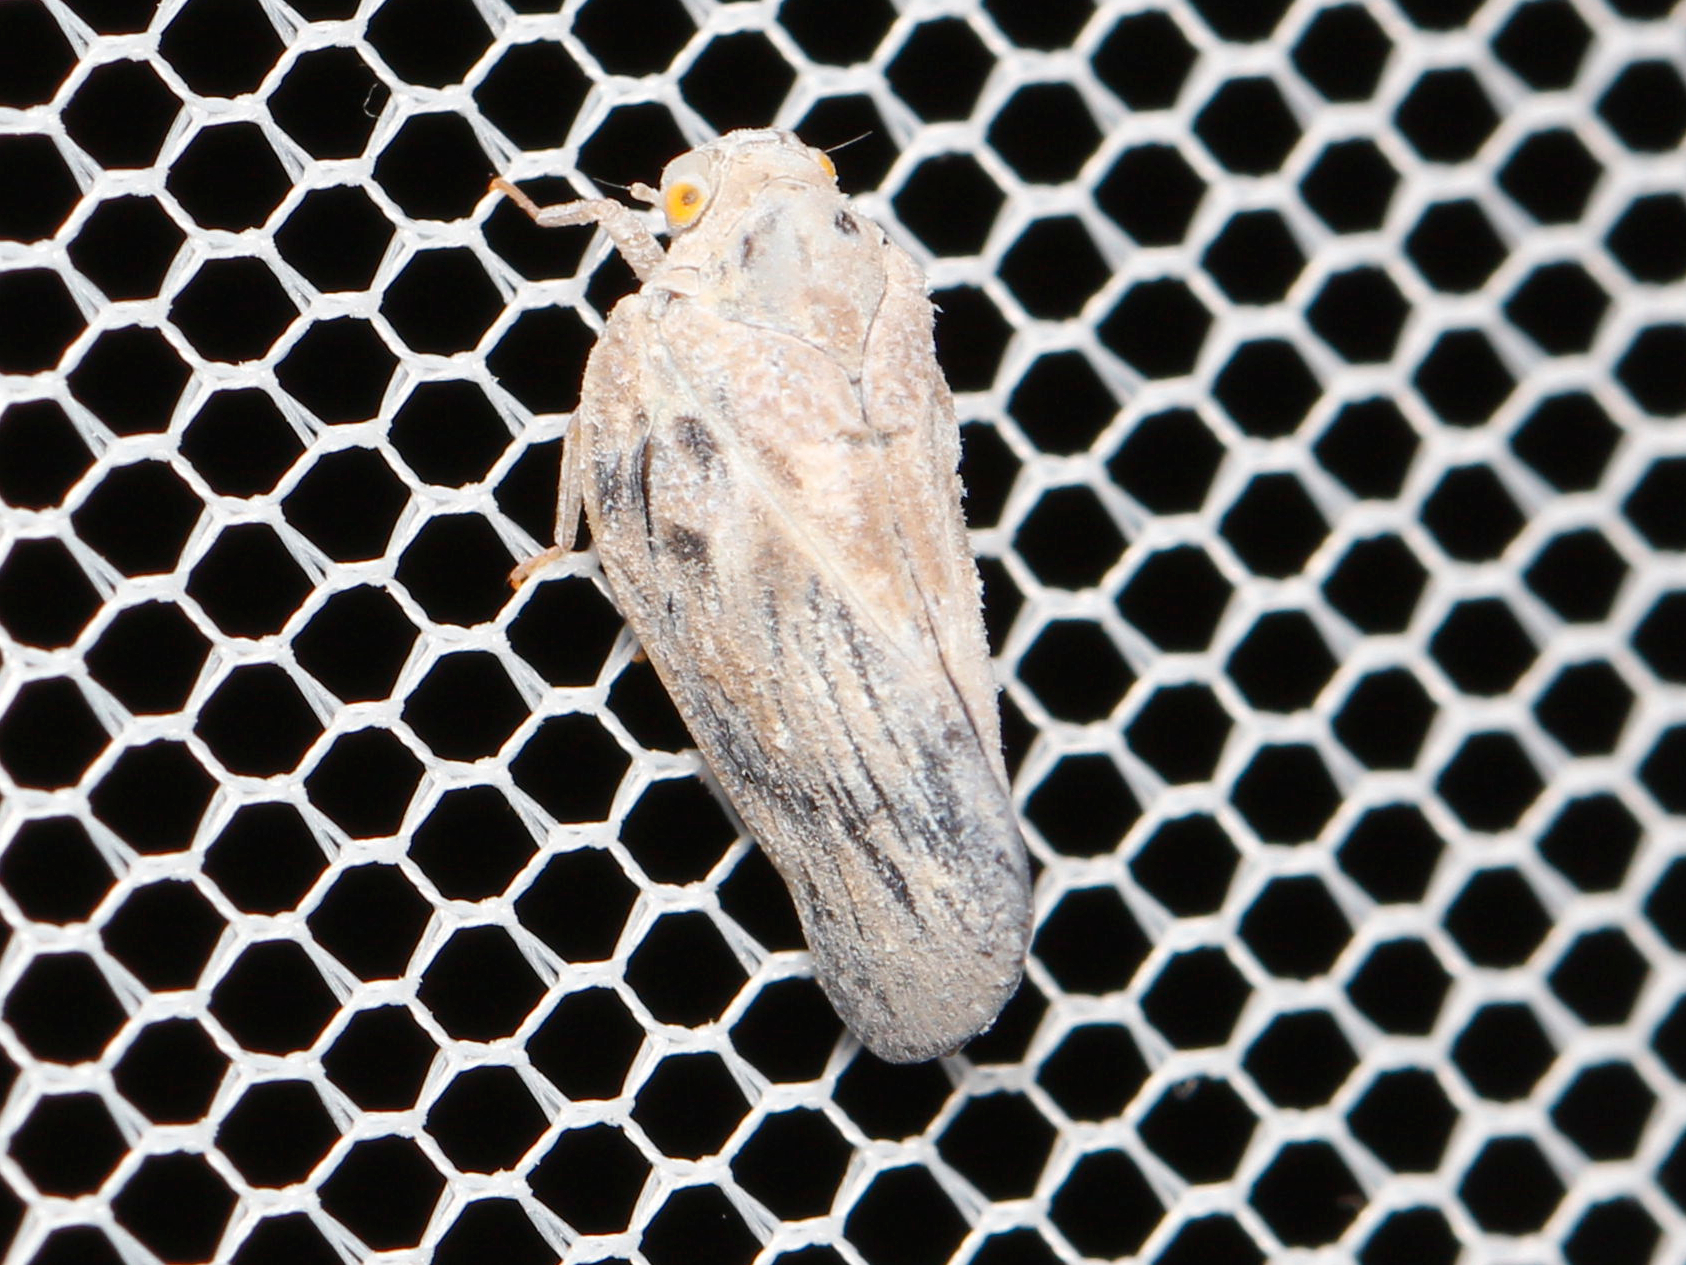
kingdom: Animalia
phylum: Arthropoda
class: Insecta
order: Hemiptera
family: Flatidae
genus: Metcalfa
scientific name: Metcalfa pruinosa
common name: Citrus flatid planthopper
